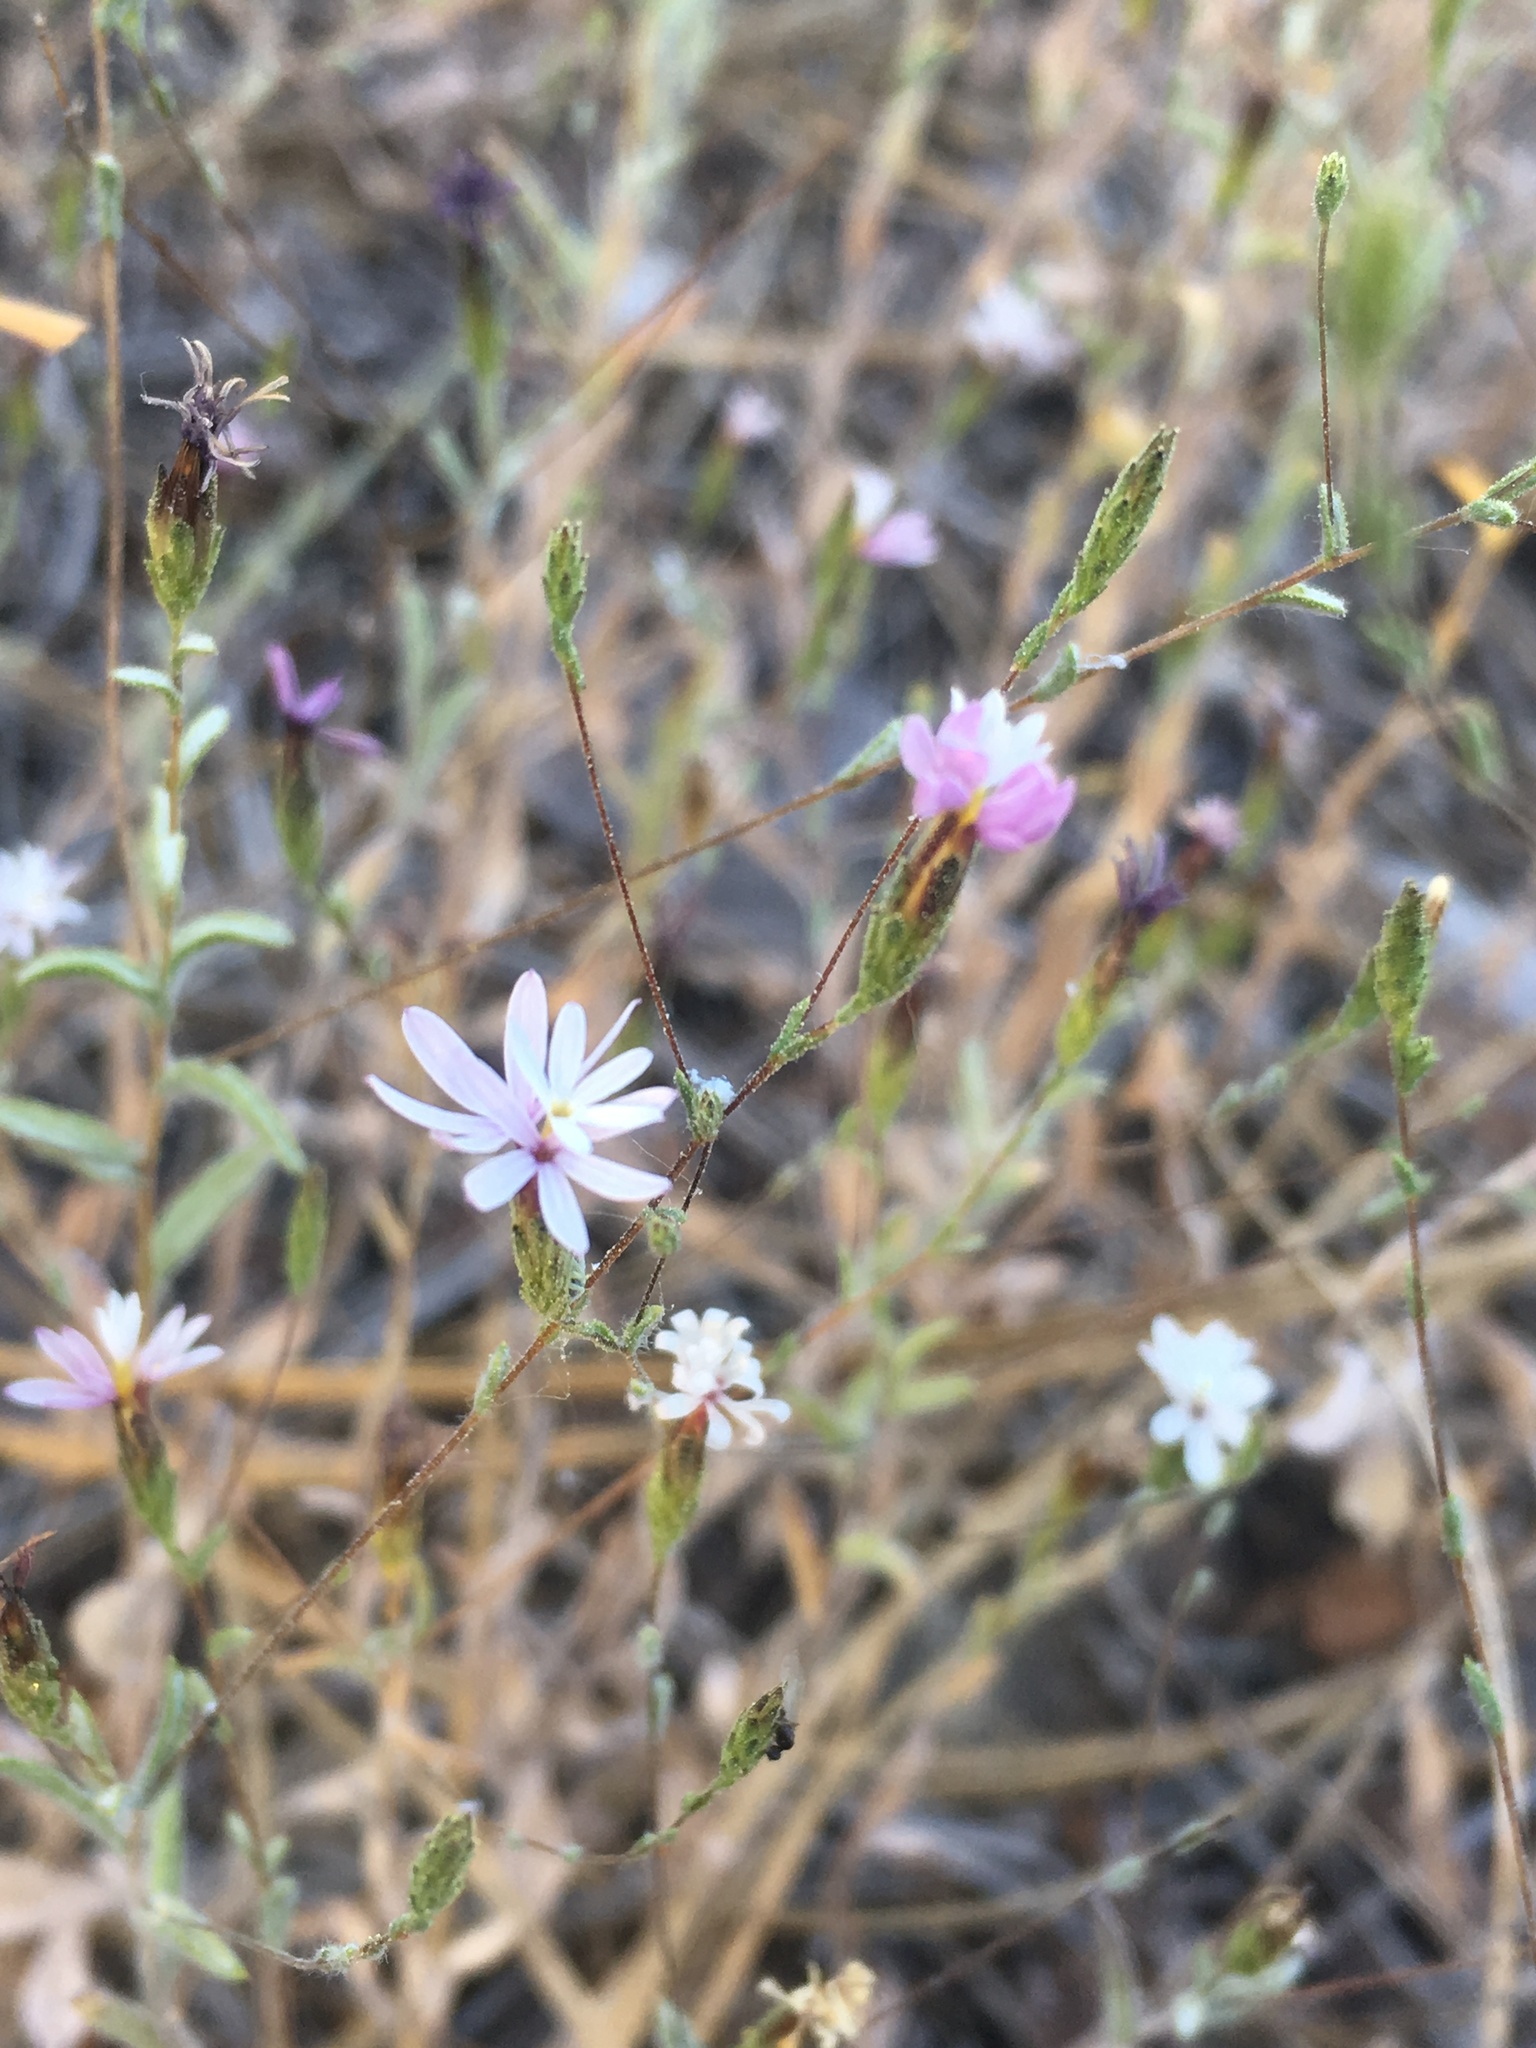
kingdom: Plantae
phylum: Tracheophyta
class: Magnoliopsida
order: Asterales
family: Asteraceae
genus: Lessingia
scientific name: Lessingia nemaclada
